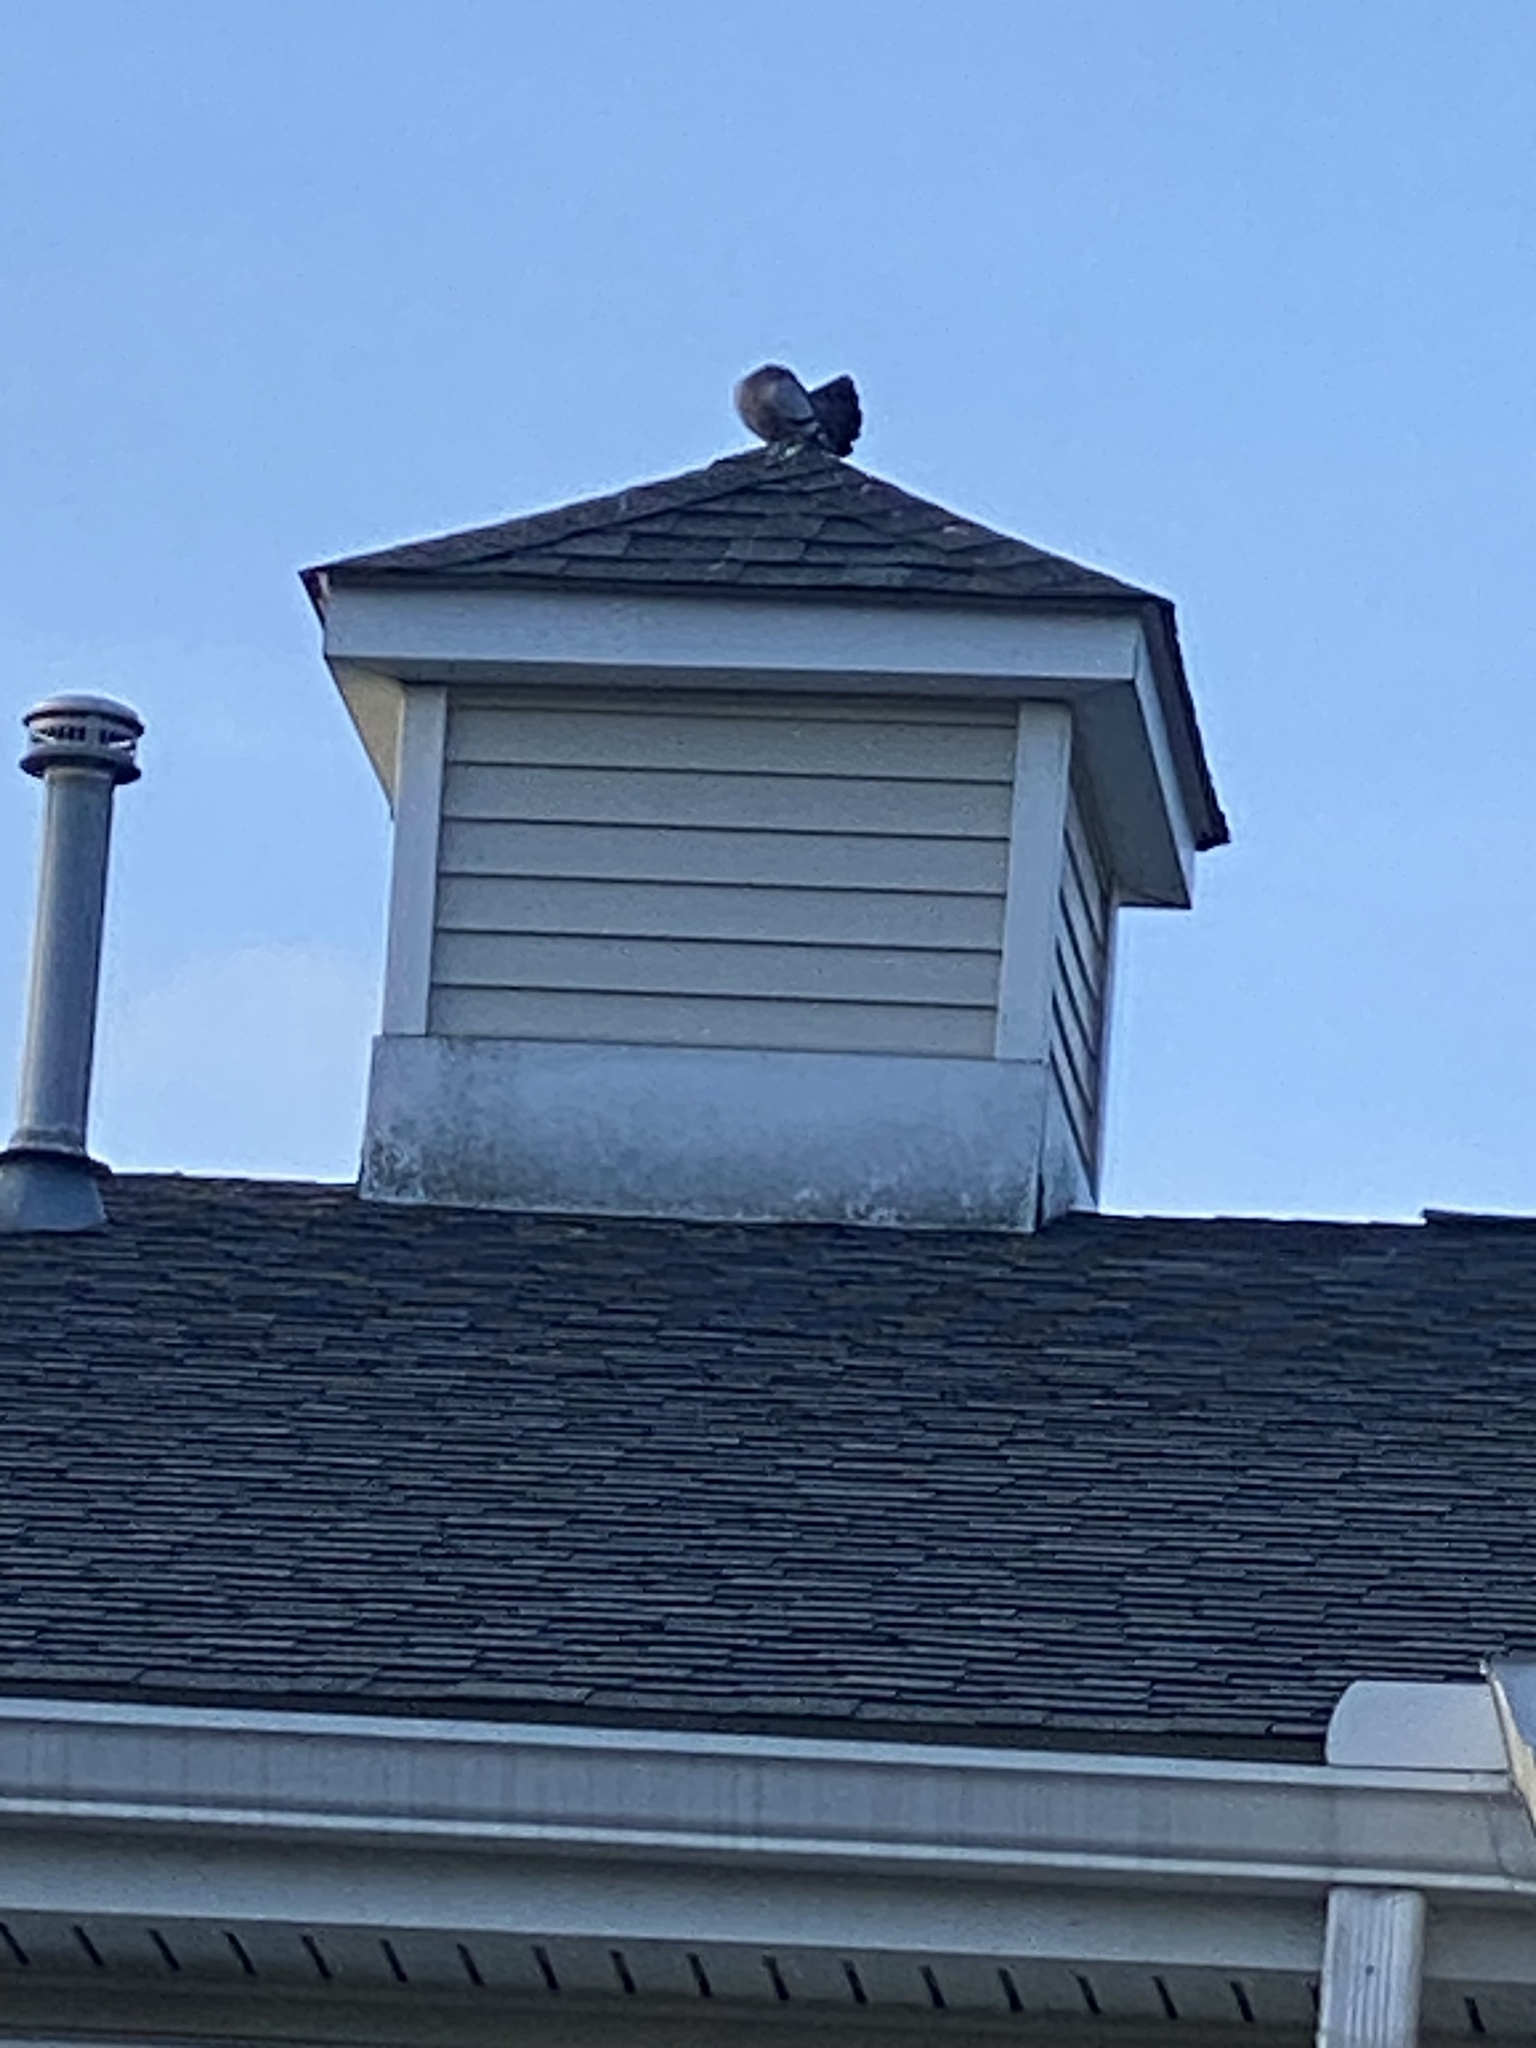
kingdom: Animalia
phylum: Chordata
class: Aves
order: Columbiformes
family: Columbidae
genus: Columba
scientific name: Columba livia
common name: Rock pigeon
